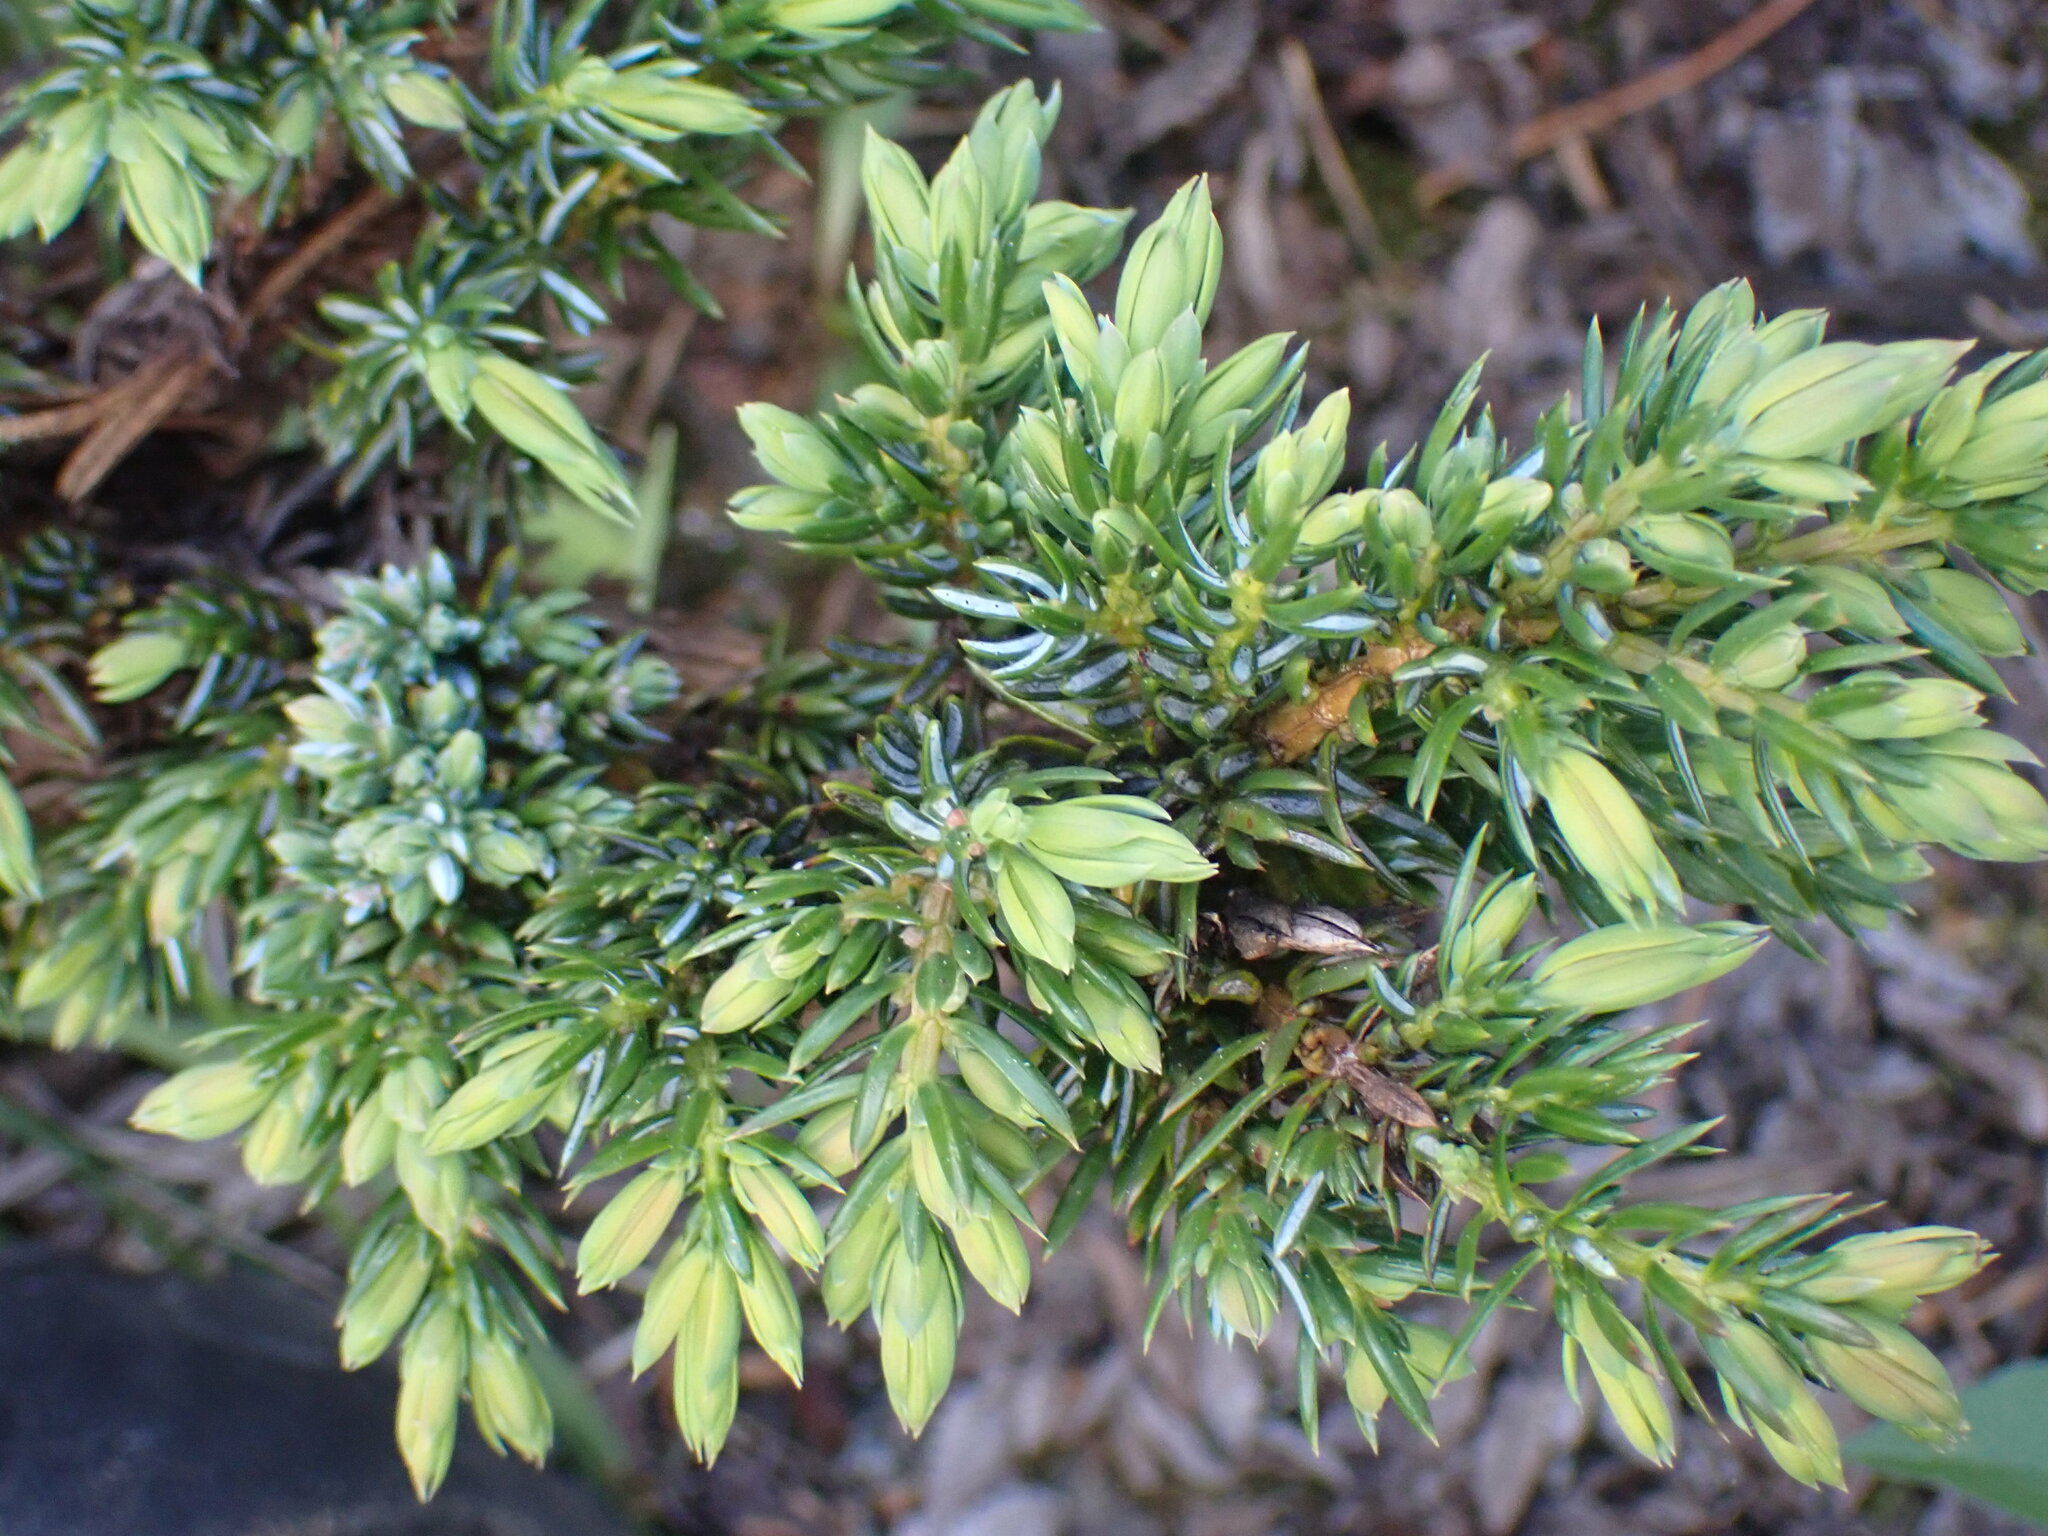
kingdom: Plantae
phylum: Tracheophyta
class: Pinopsida
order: Pinales
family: Cupressaceae
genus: Juniperus
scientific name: Juniperus communis
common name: Common juniper
